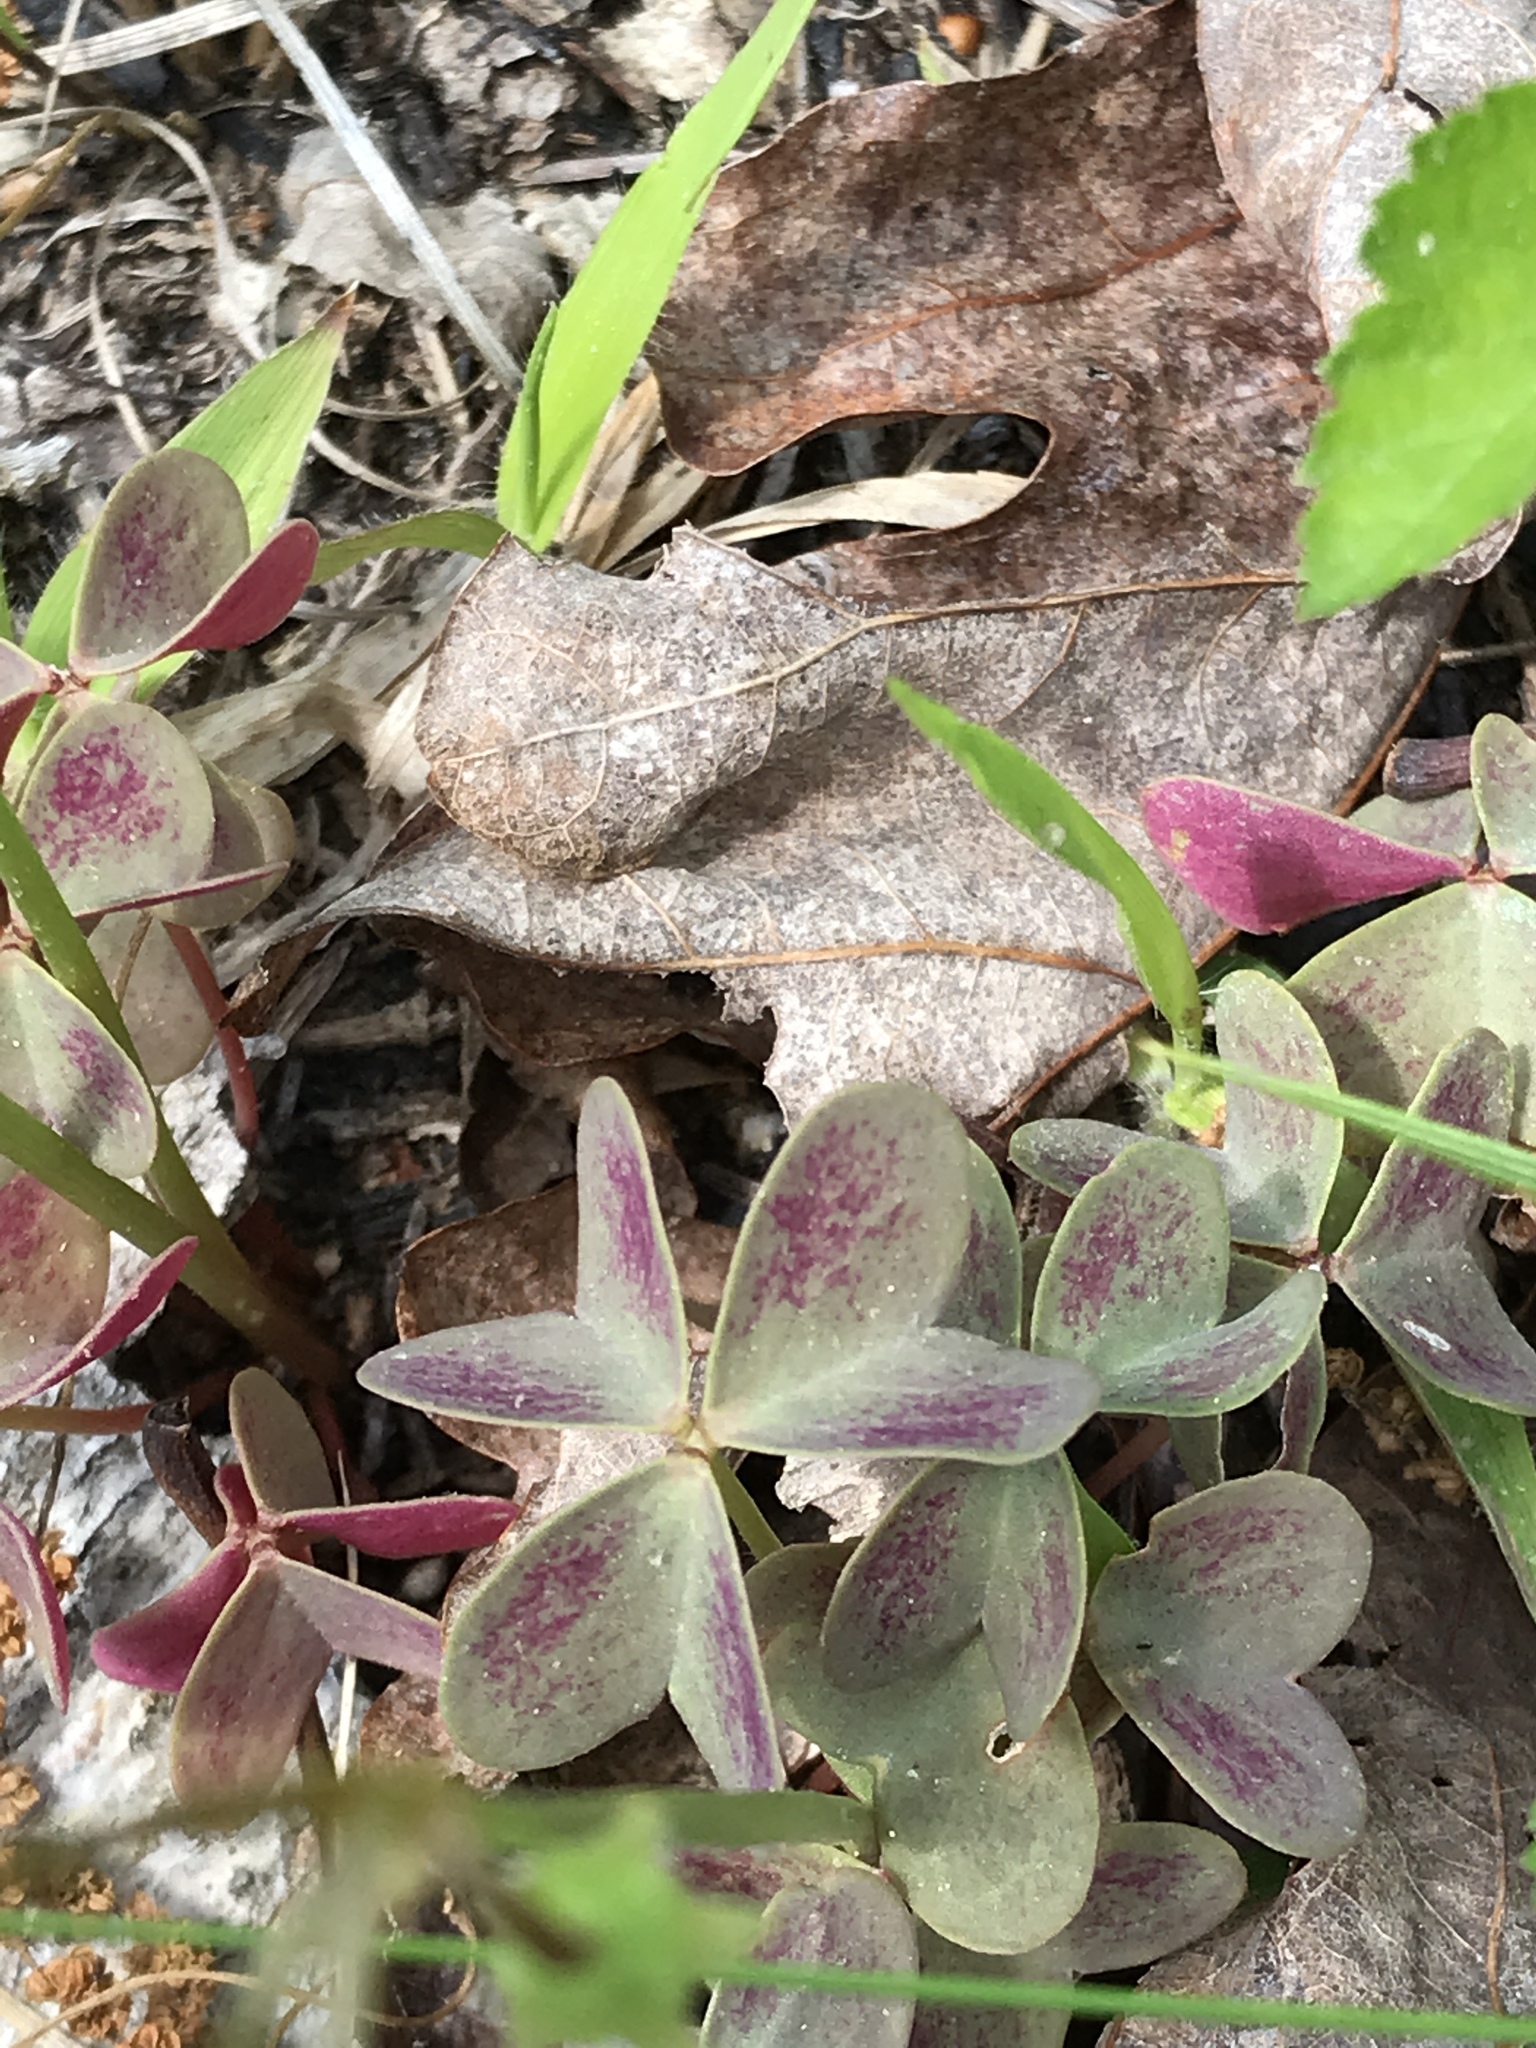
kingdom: Plantae
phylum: Tracheophyta
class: Magnoliopsida
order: Oxalidales
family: Oxalidaceae
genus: Oxalis
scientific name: Oxalis violacea
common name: Violet wood-sorrel
